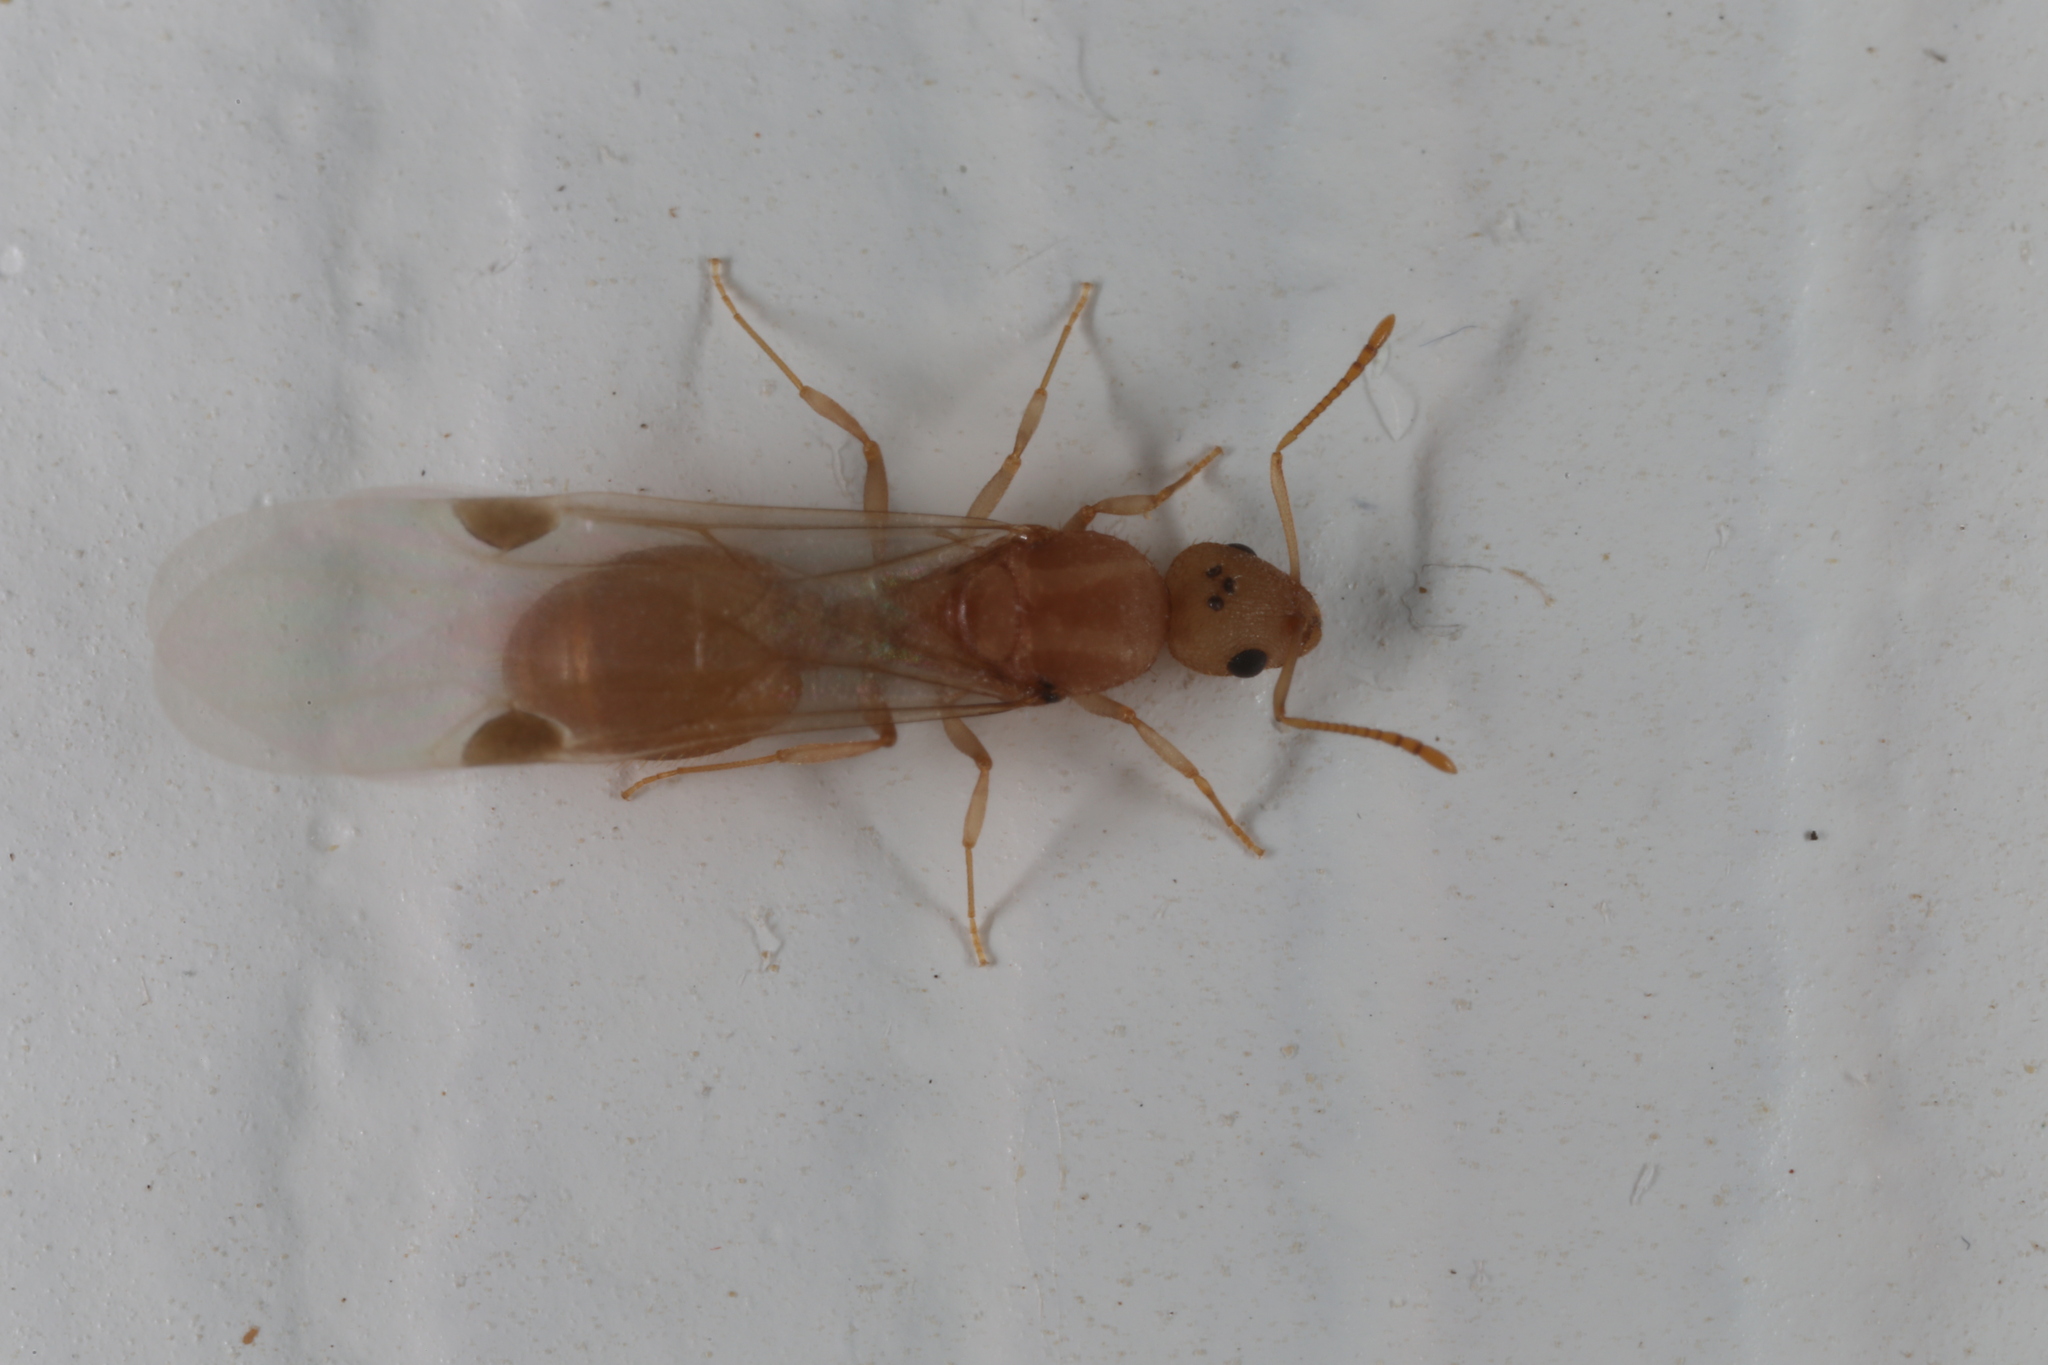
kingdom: Animalia
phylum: Arthropoda
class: Insecta
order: Hymenoptera
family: Formicidae
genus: Temnothorax
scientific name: Temnothorax
